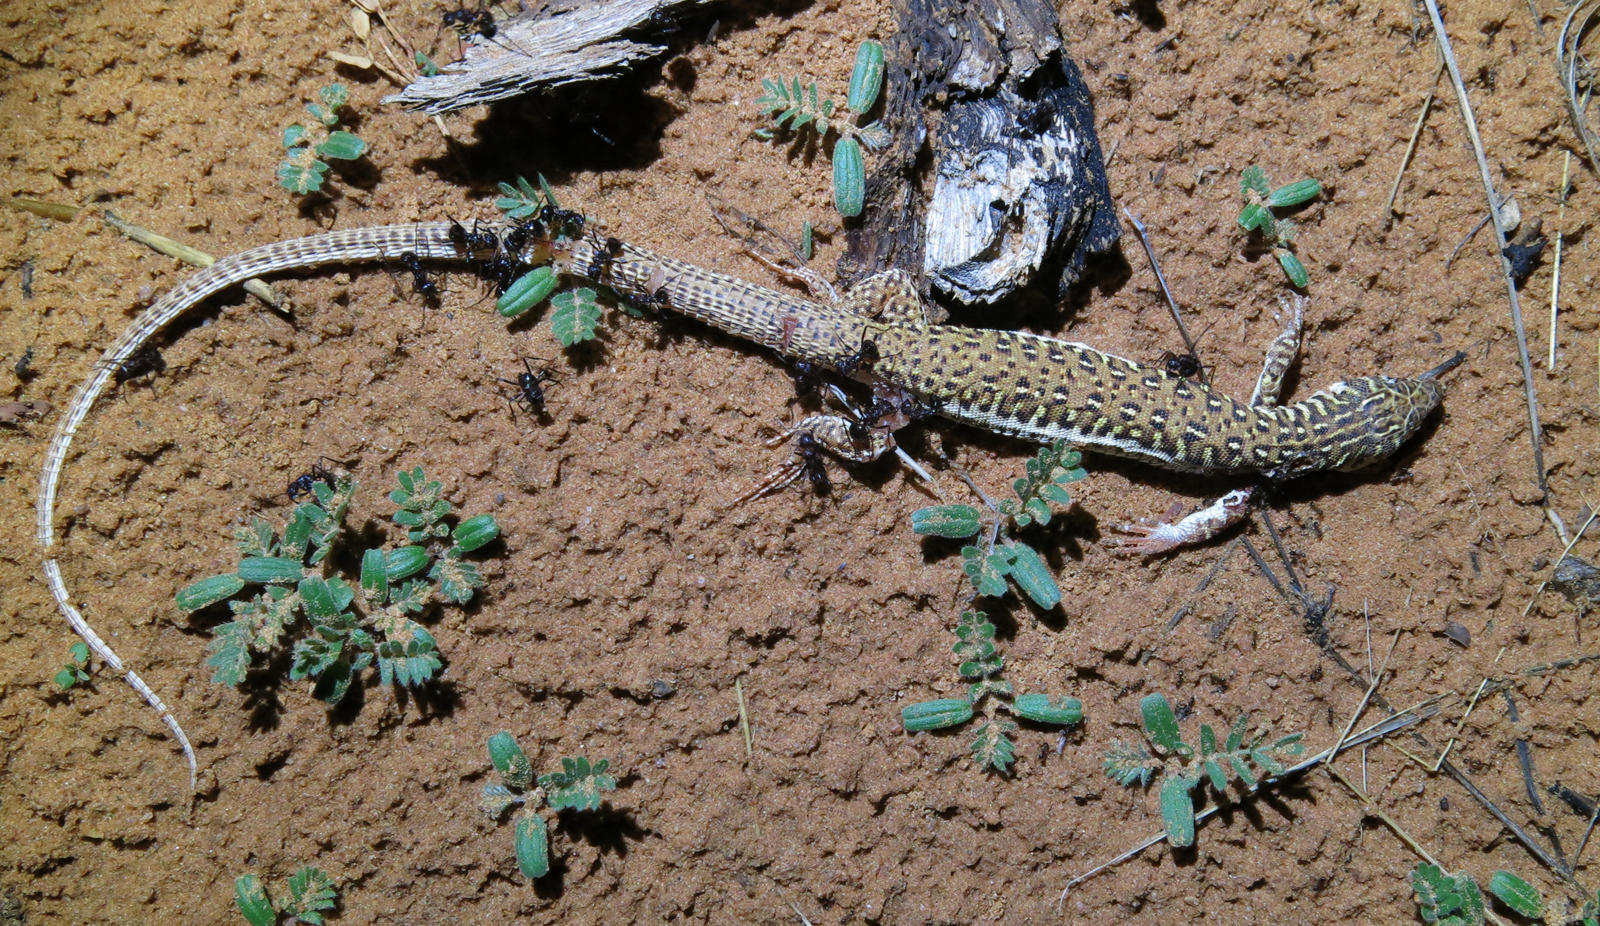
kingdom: Animalia
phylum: Chordata
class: Squamata
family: Lacertidae
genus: Nucras
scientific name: Nucras intertexta
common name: Spotted sandveld lizard
